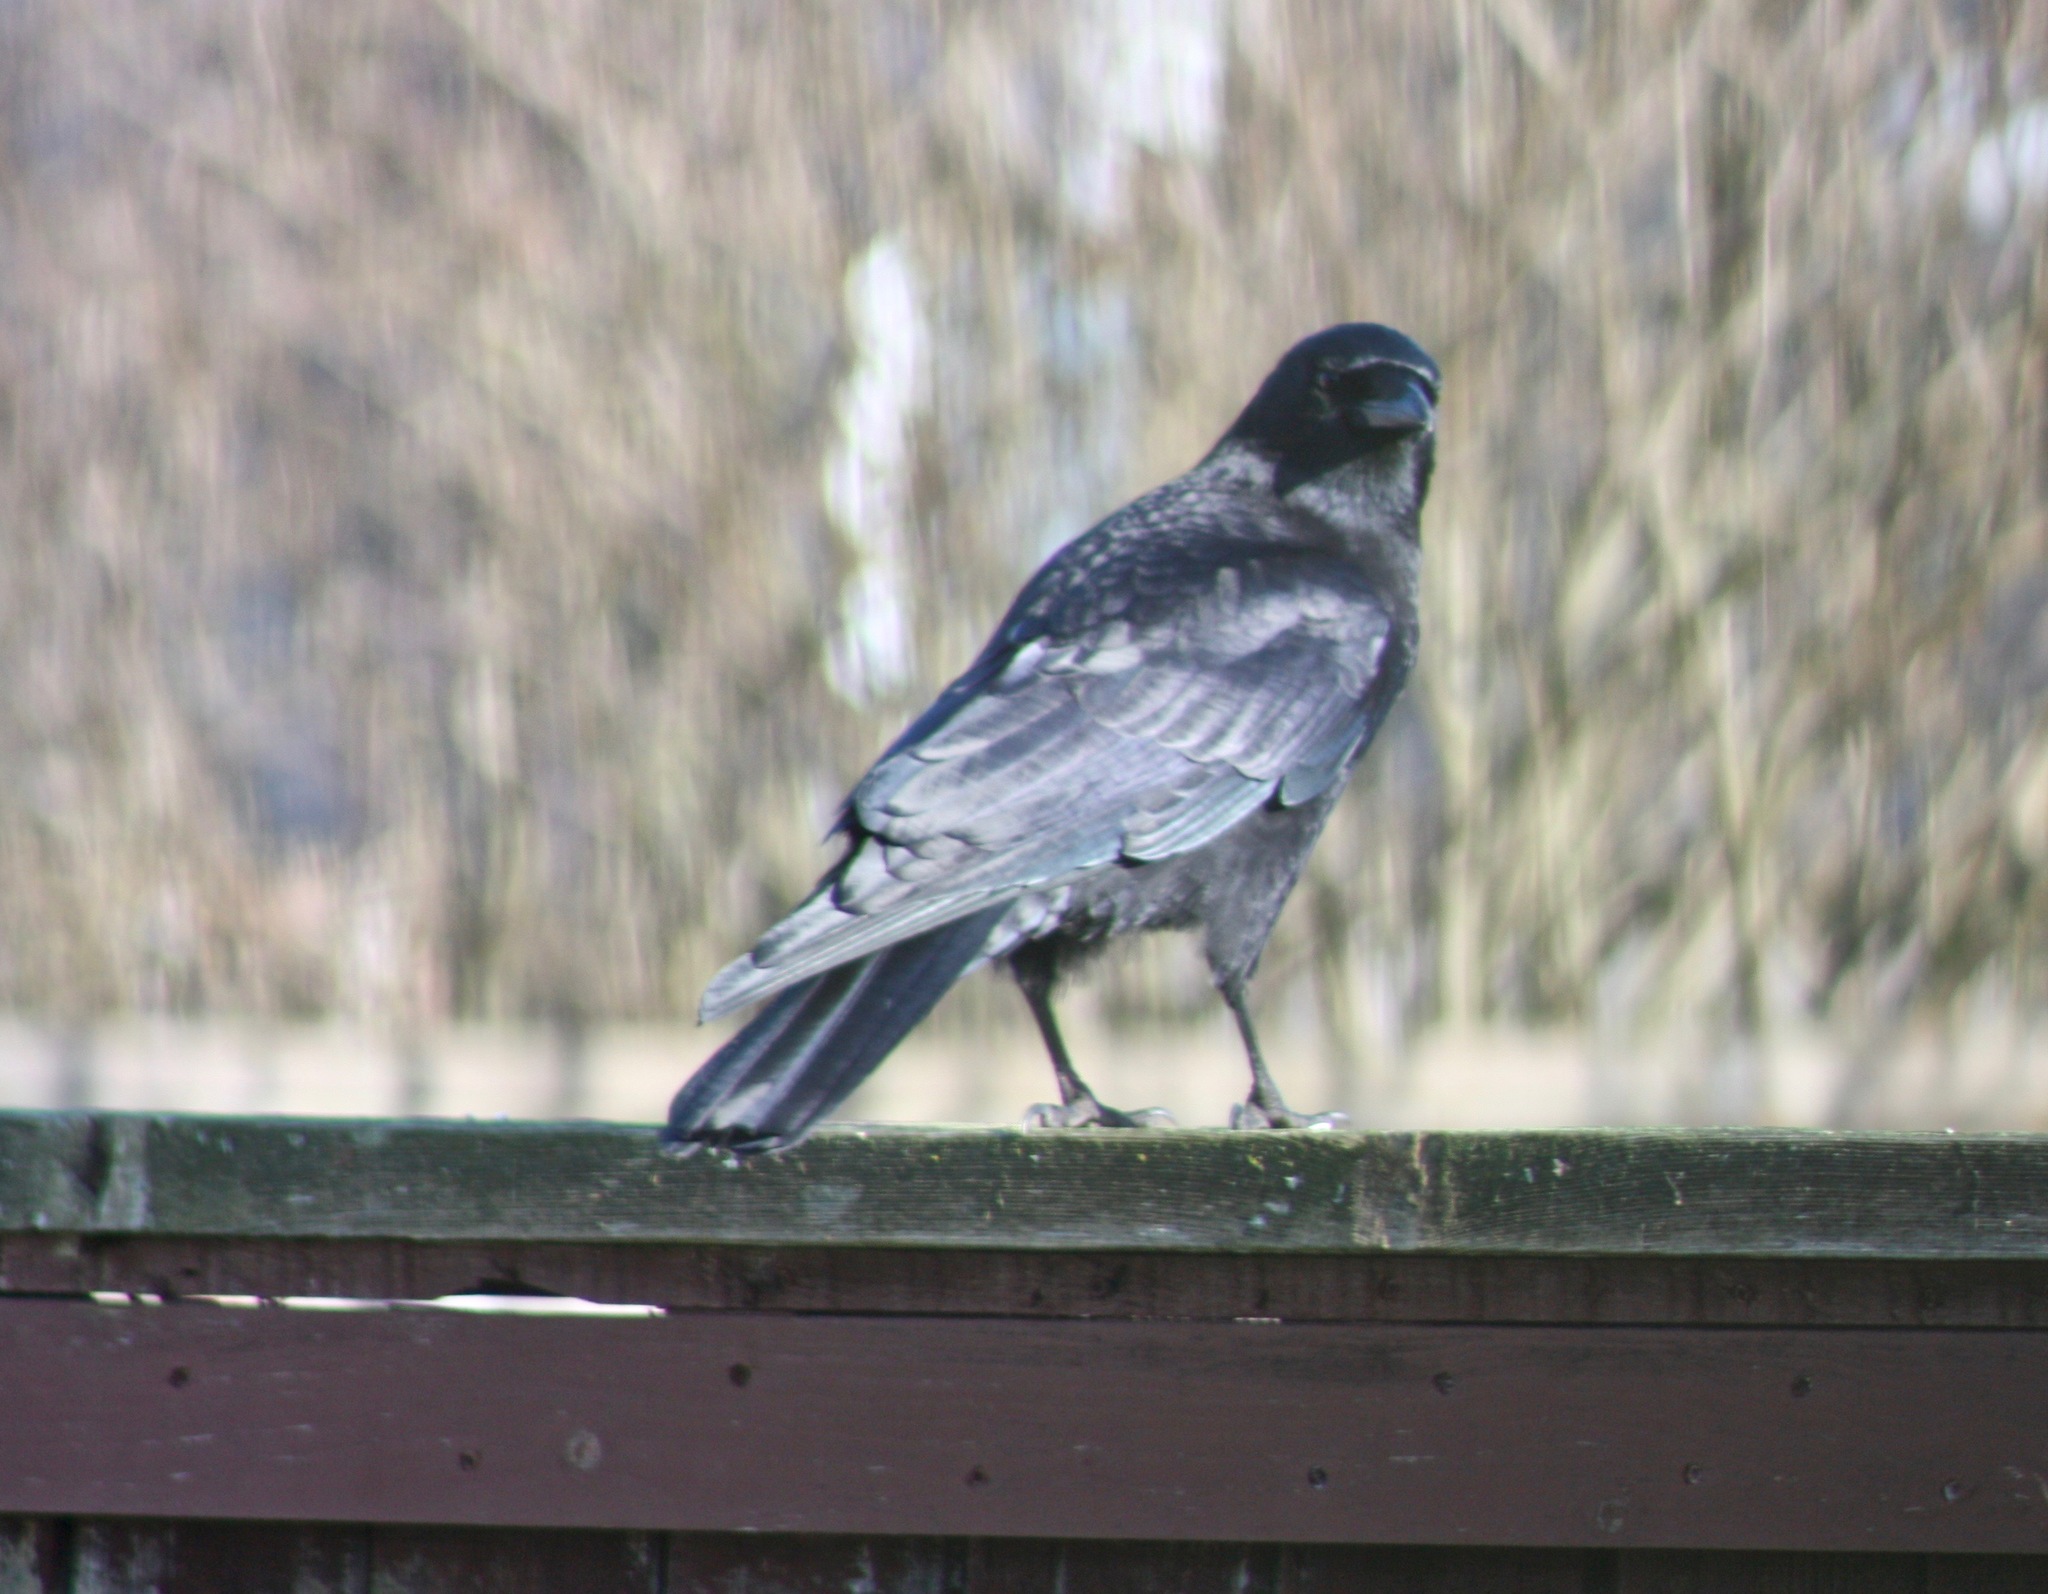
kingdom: Animalia
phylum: Chordata
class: Aves
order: Passeriformes
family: Corvidae
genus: Corvus
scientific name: Corvus brachyrhynchos
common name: American crow
